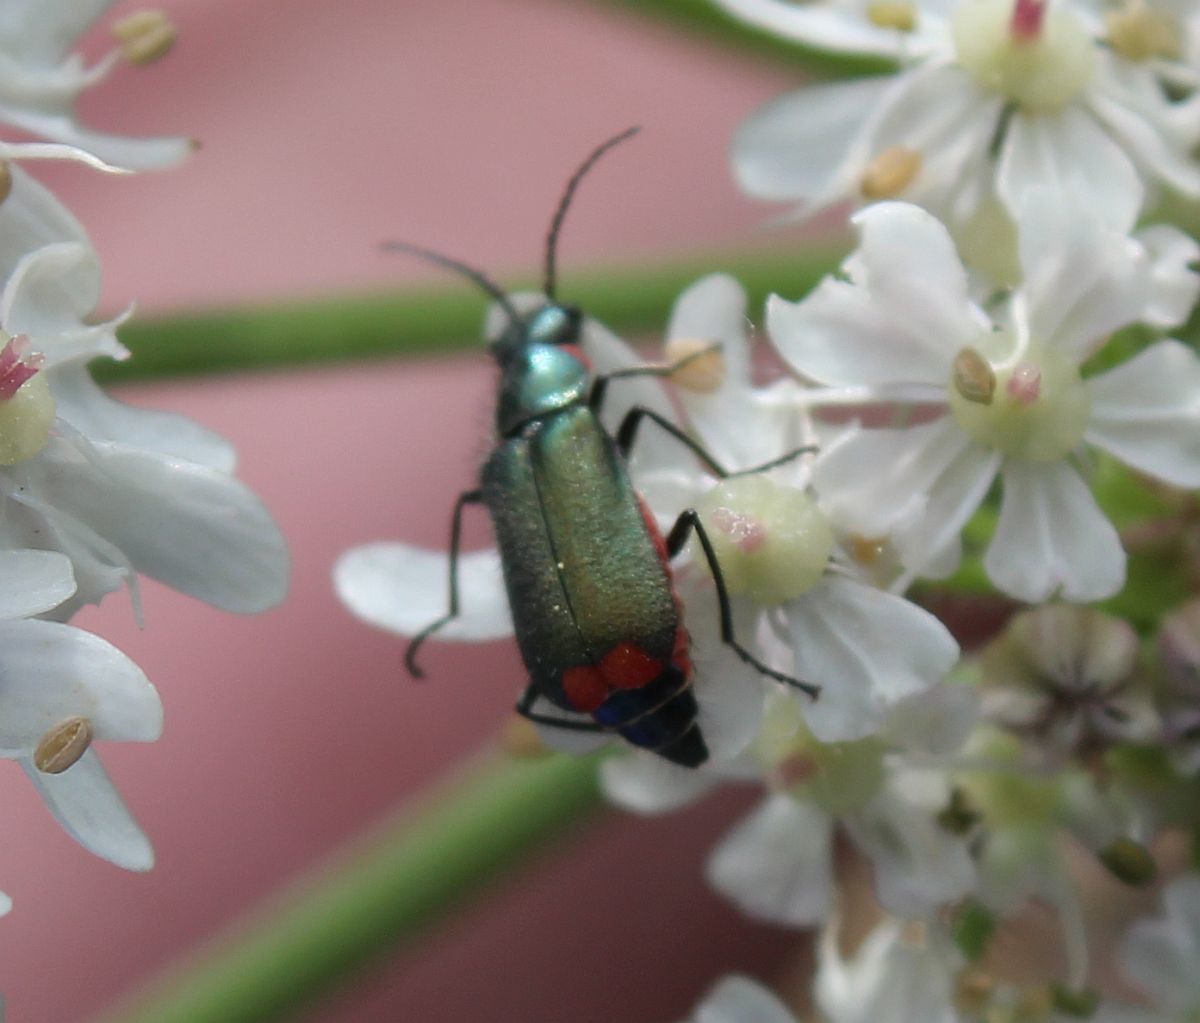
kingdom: Animalia
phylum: Arthropoda
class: Insecta
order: Coleoptera
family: Melyridae
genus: Malachius
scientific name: Malachius bipustulatus
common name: Malachite beetle
